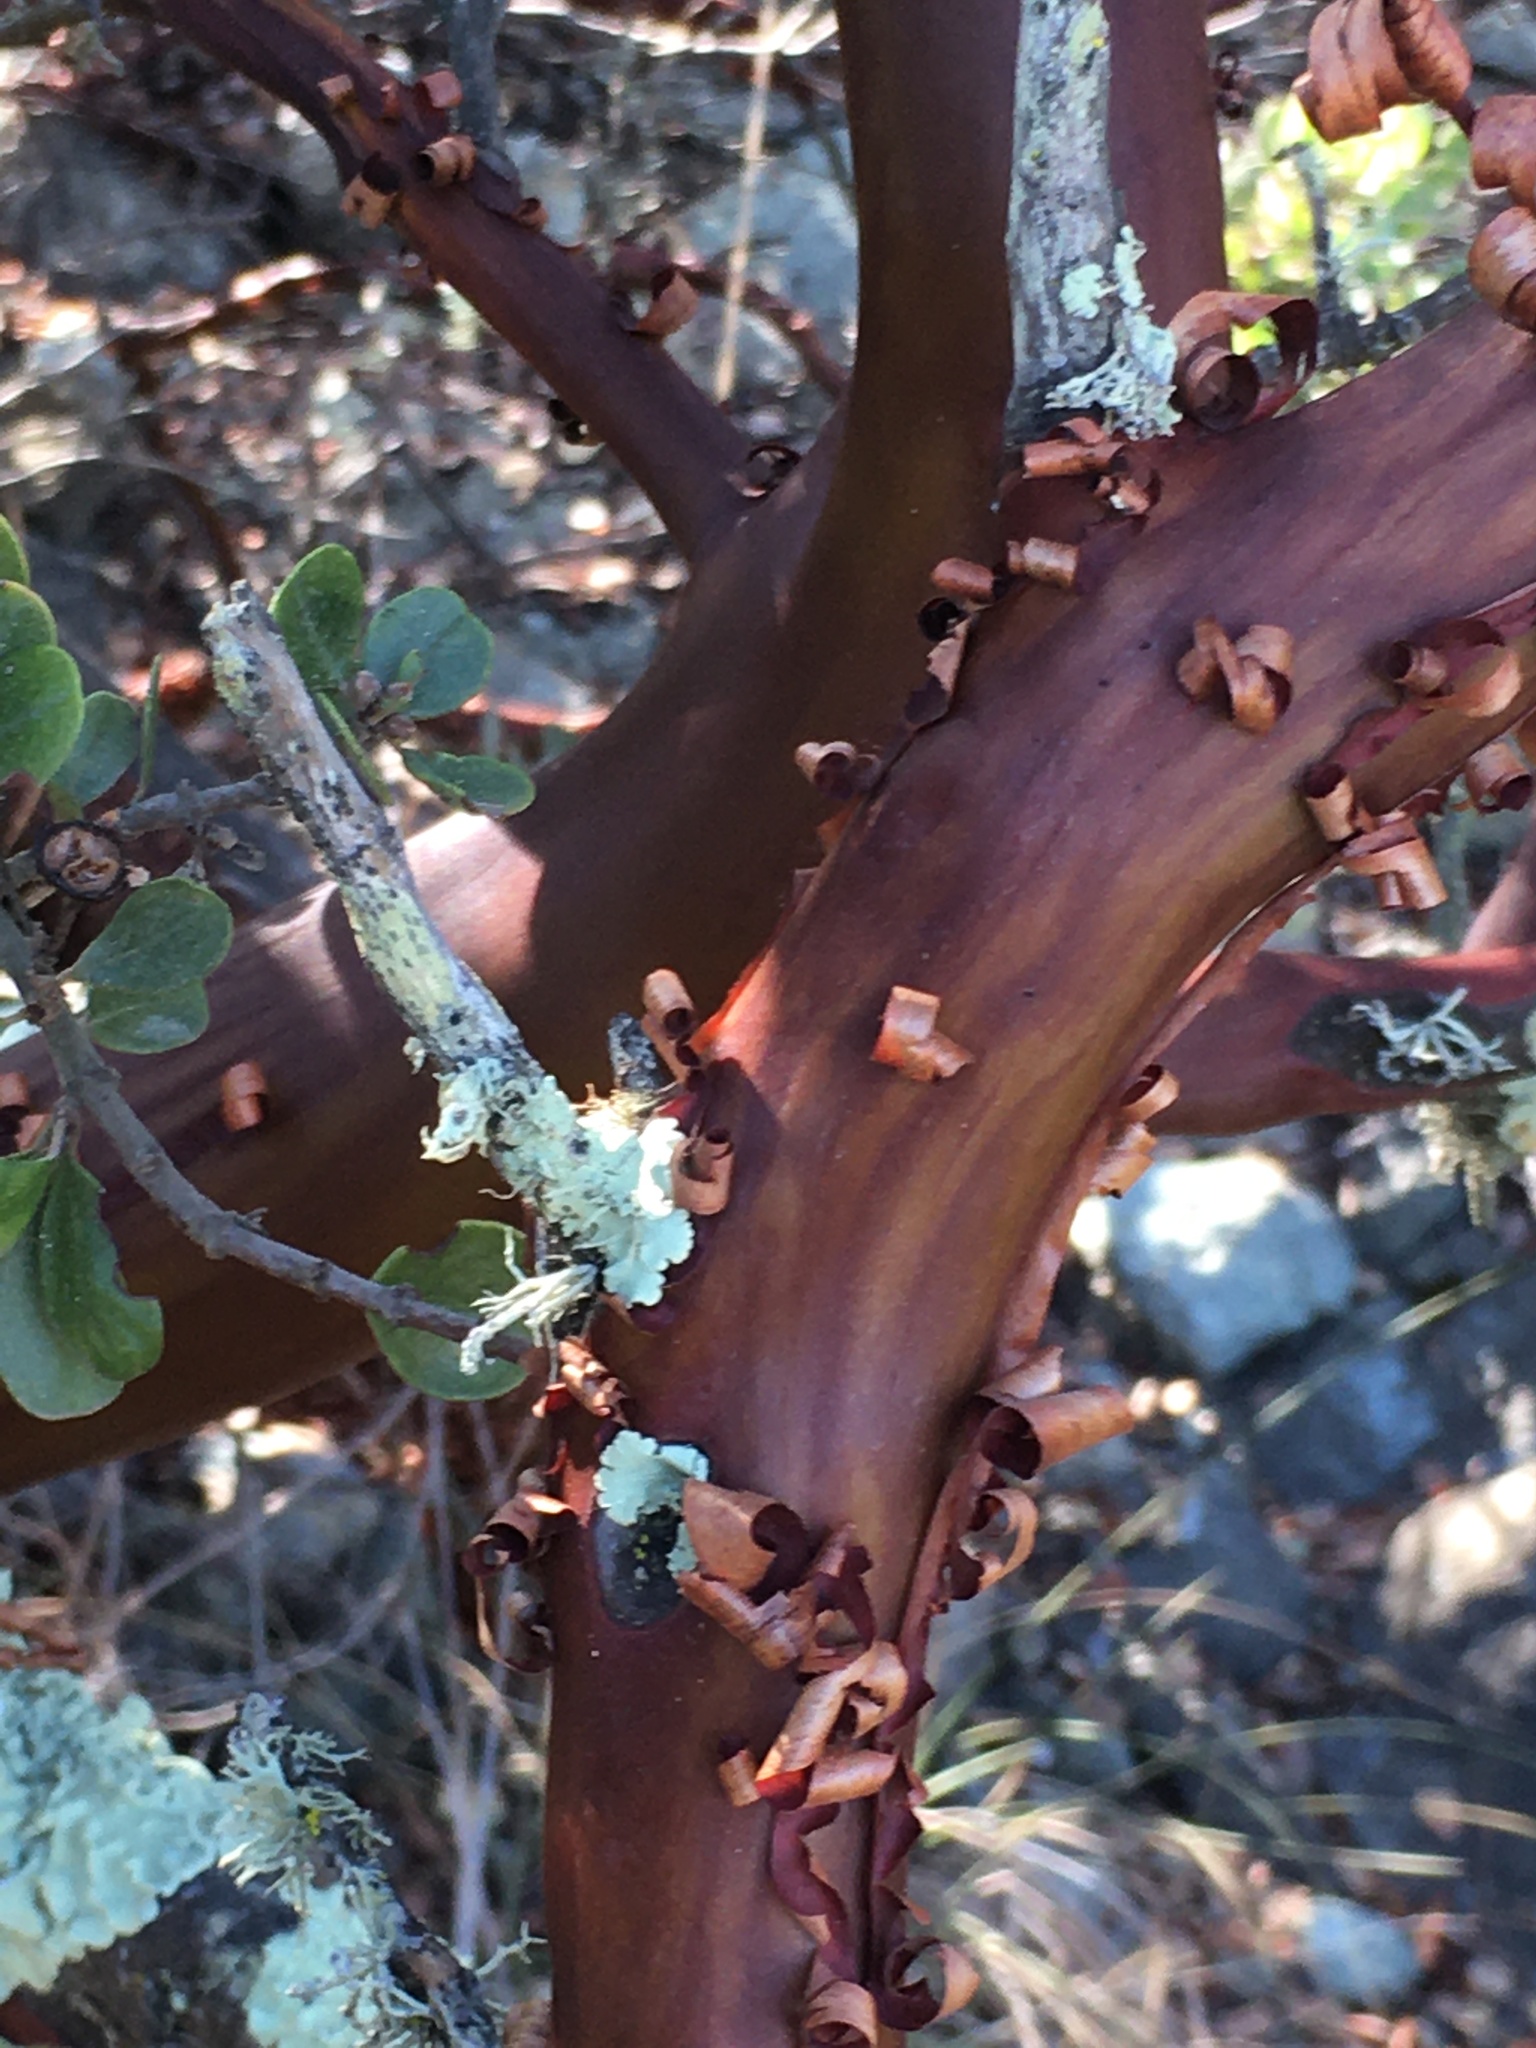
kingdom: Plantae
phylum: Tracheophyta
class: Magnoliopsida
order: Rosales
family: Rhamnaceae
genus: Ceanothus
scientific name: Ceanothus cuneatus
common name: Cuneate ceanothus
